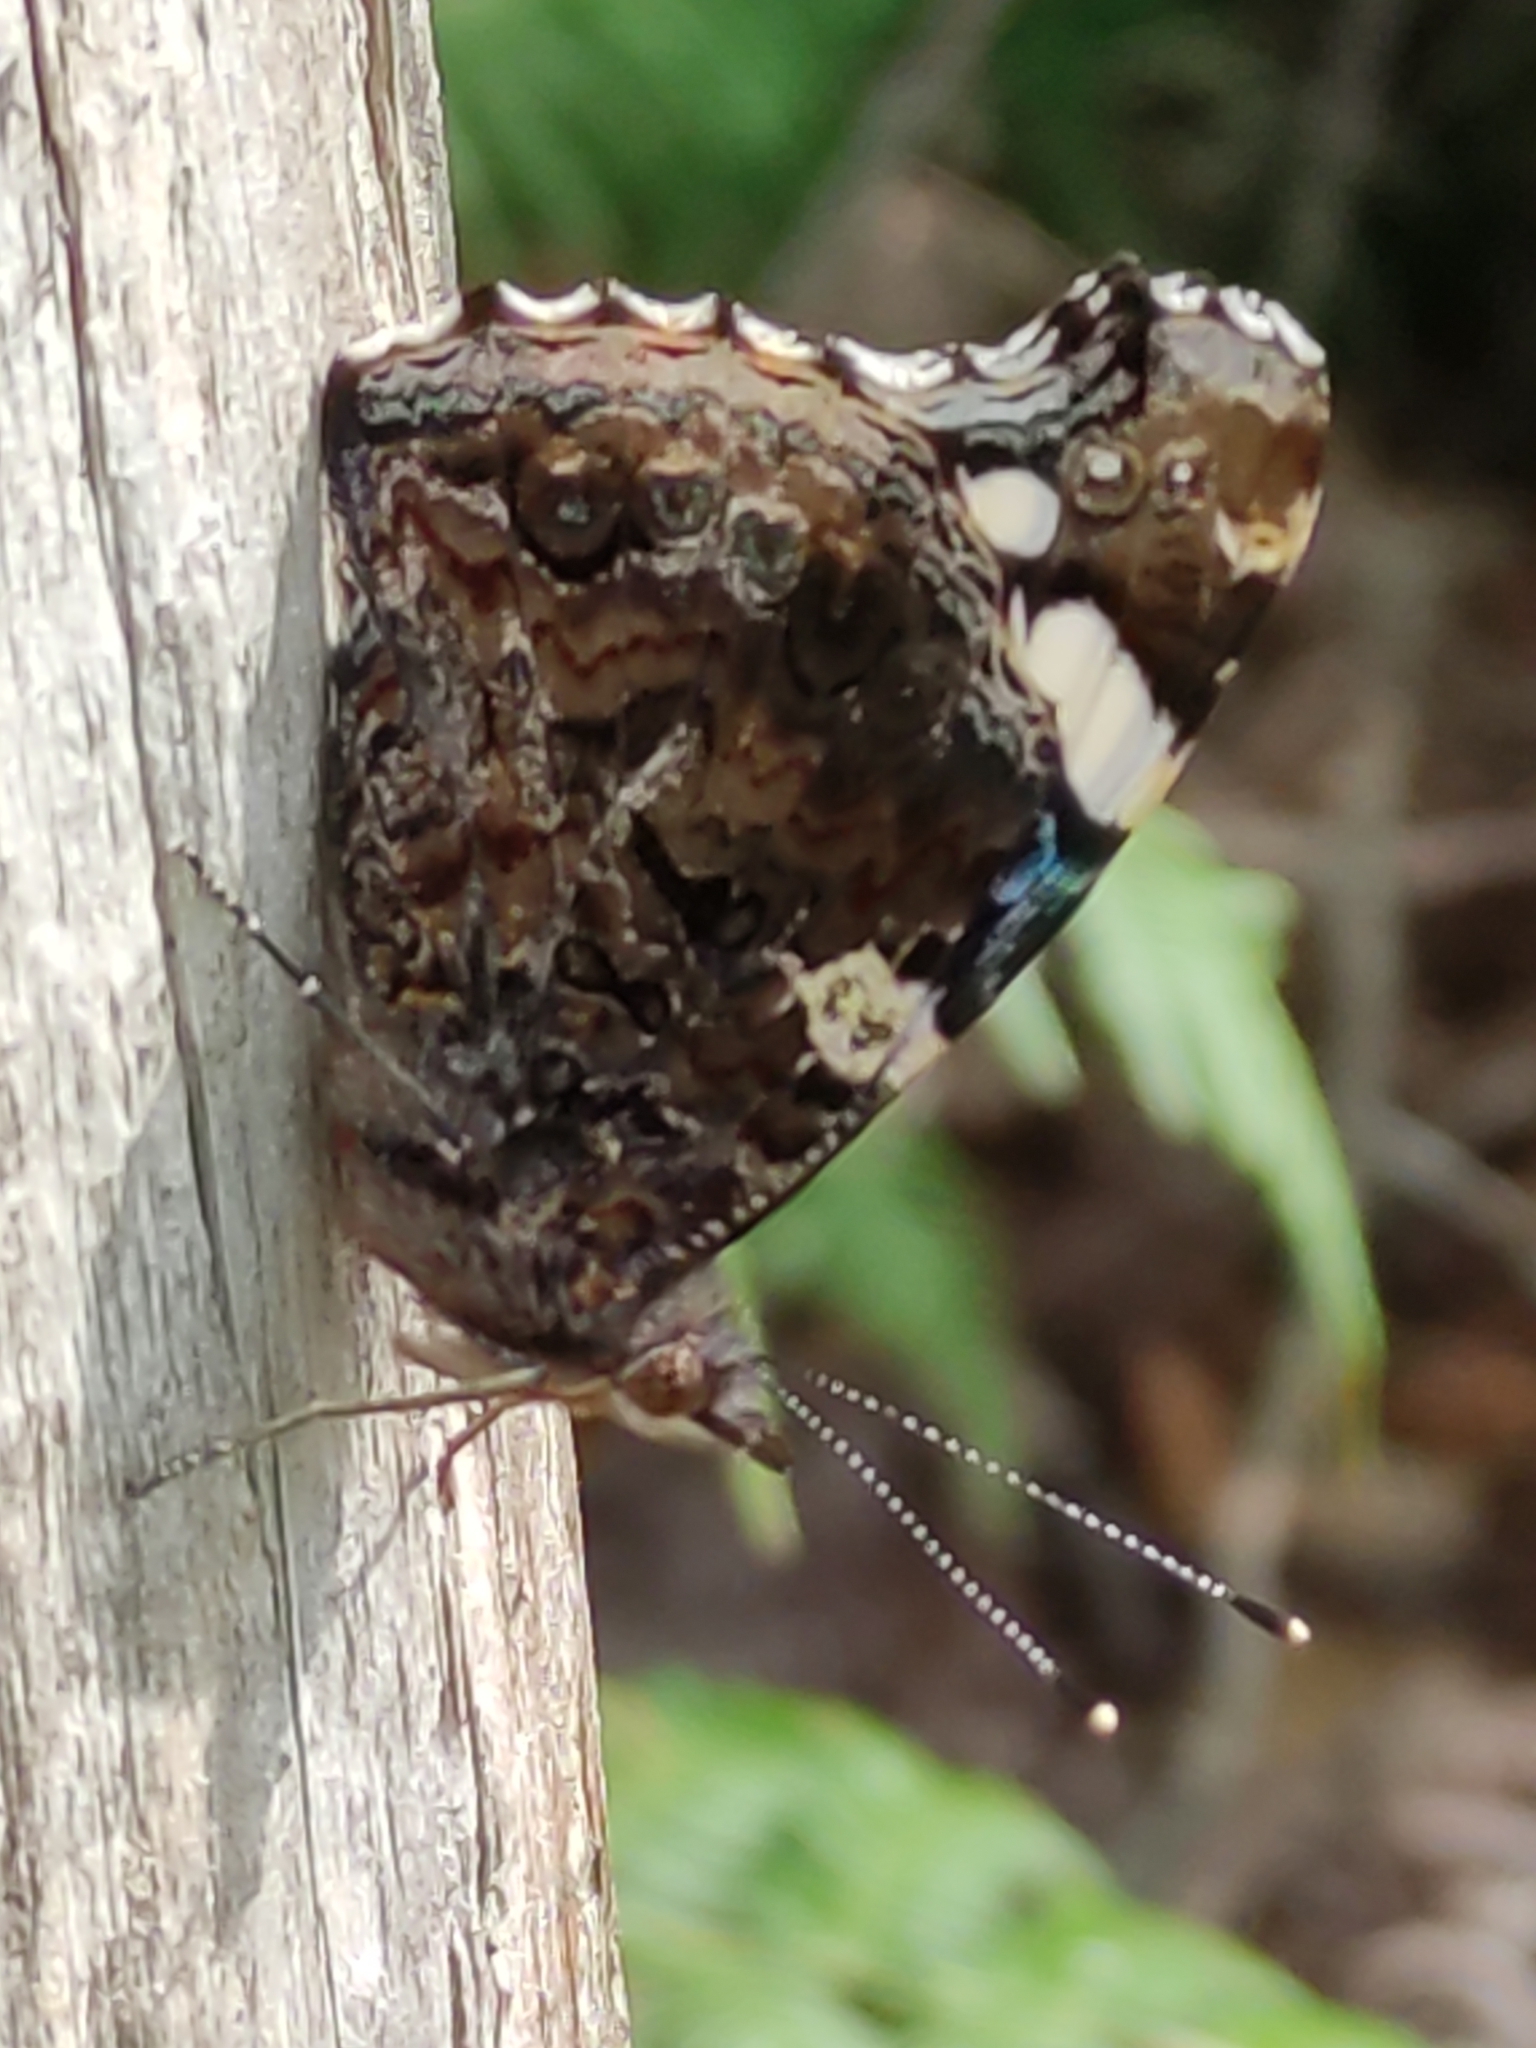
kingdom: Animalia
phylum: Arthropoda
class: Insecta
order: Lepidoptera
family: Nymphalidae
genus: Vanessa
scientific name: Vanessa atalanta
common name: Red admiral
